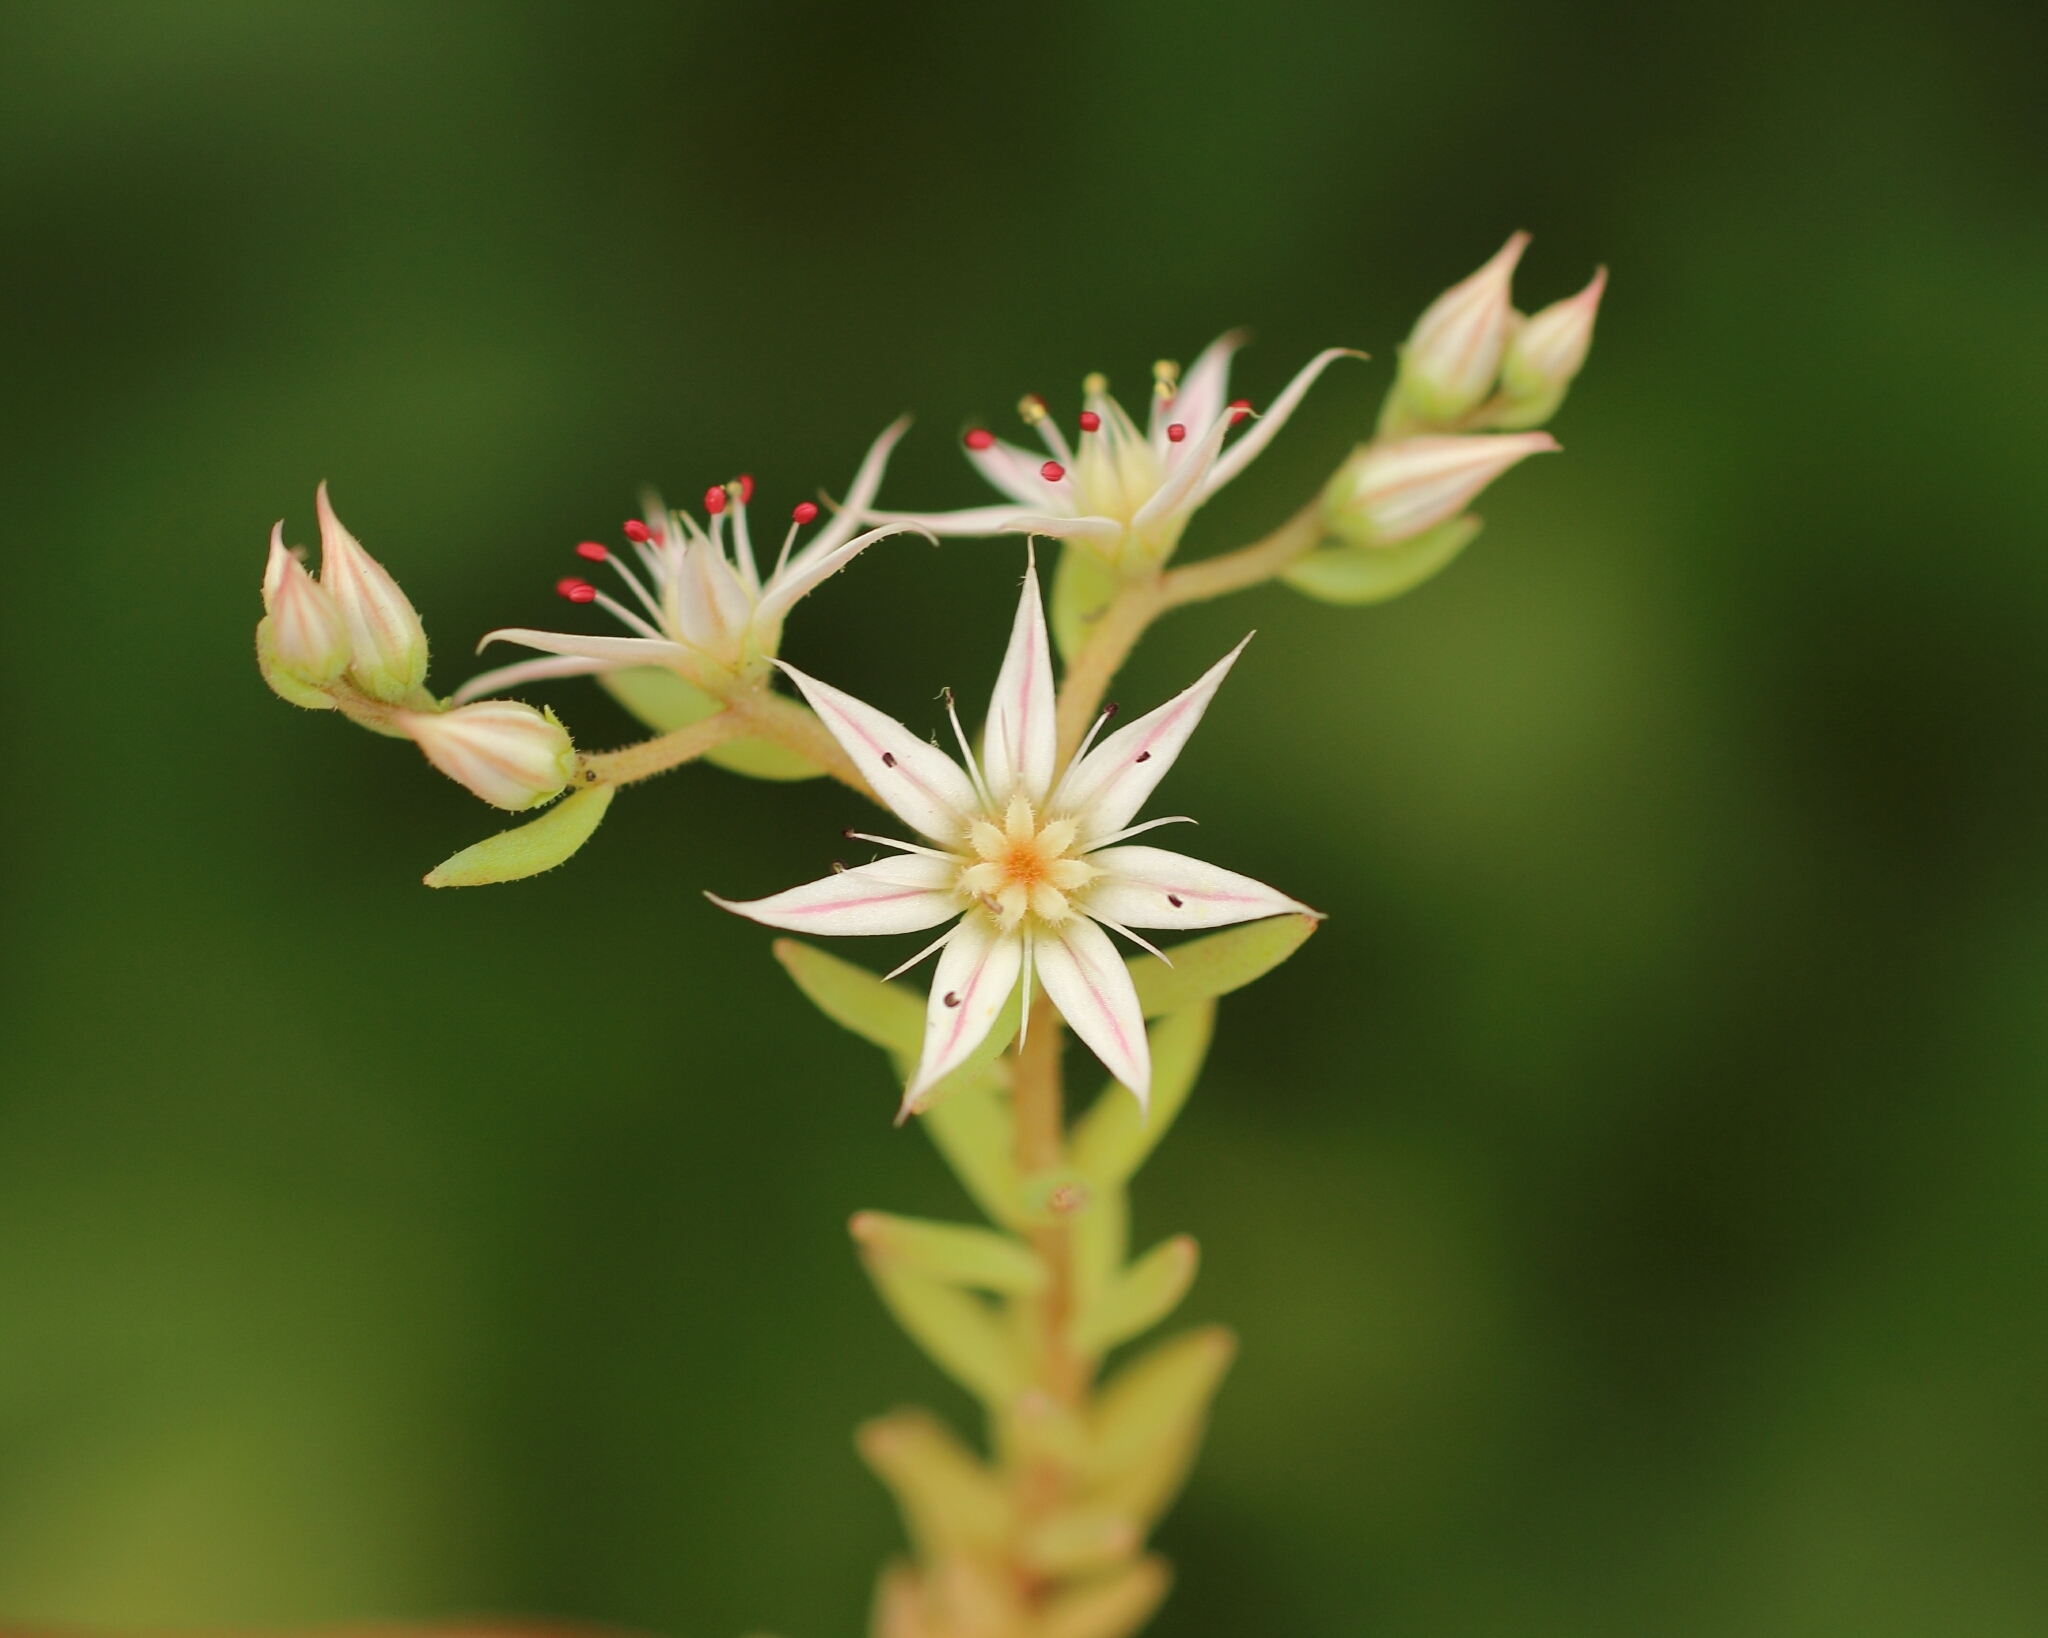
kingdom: Plantae
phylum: Tracheophyta
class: Magnoliopsida
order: Saxifragales
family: Crassulaceae
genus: Sedum
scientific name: Sedum hispanicum
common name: Spanish stonecrop
